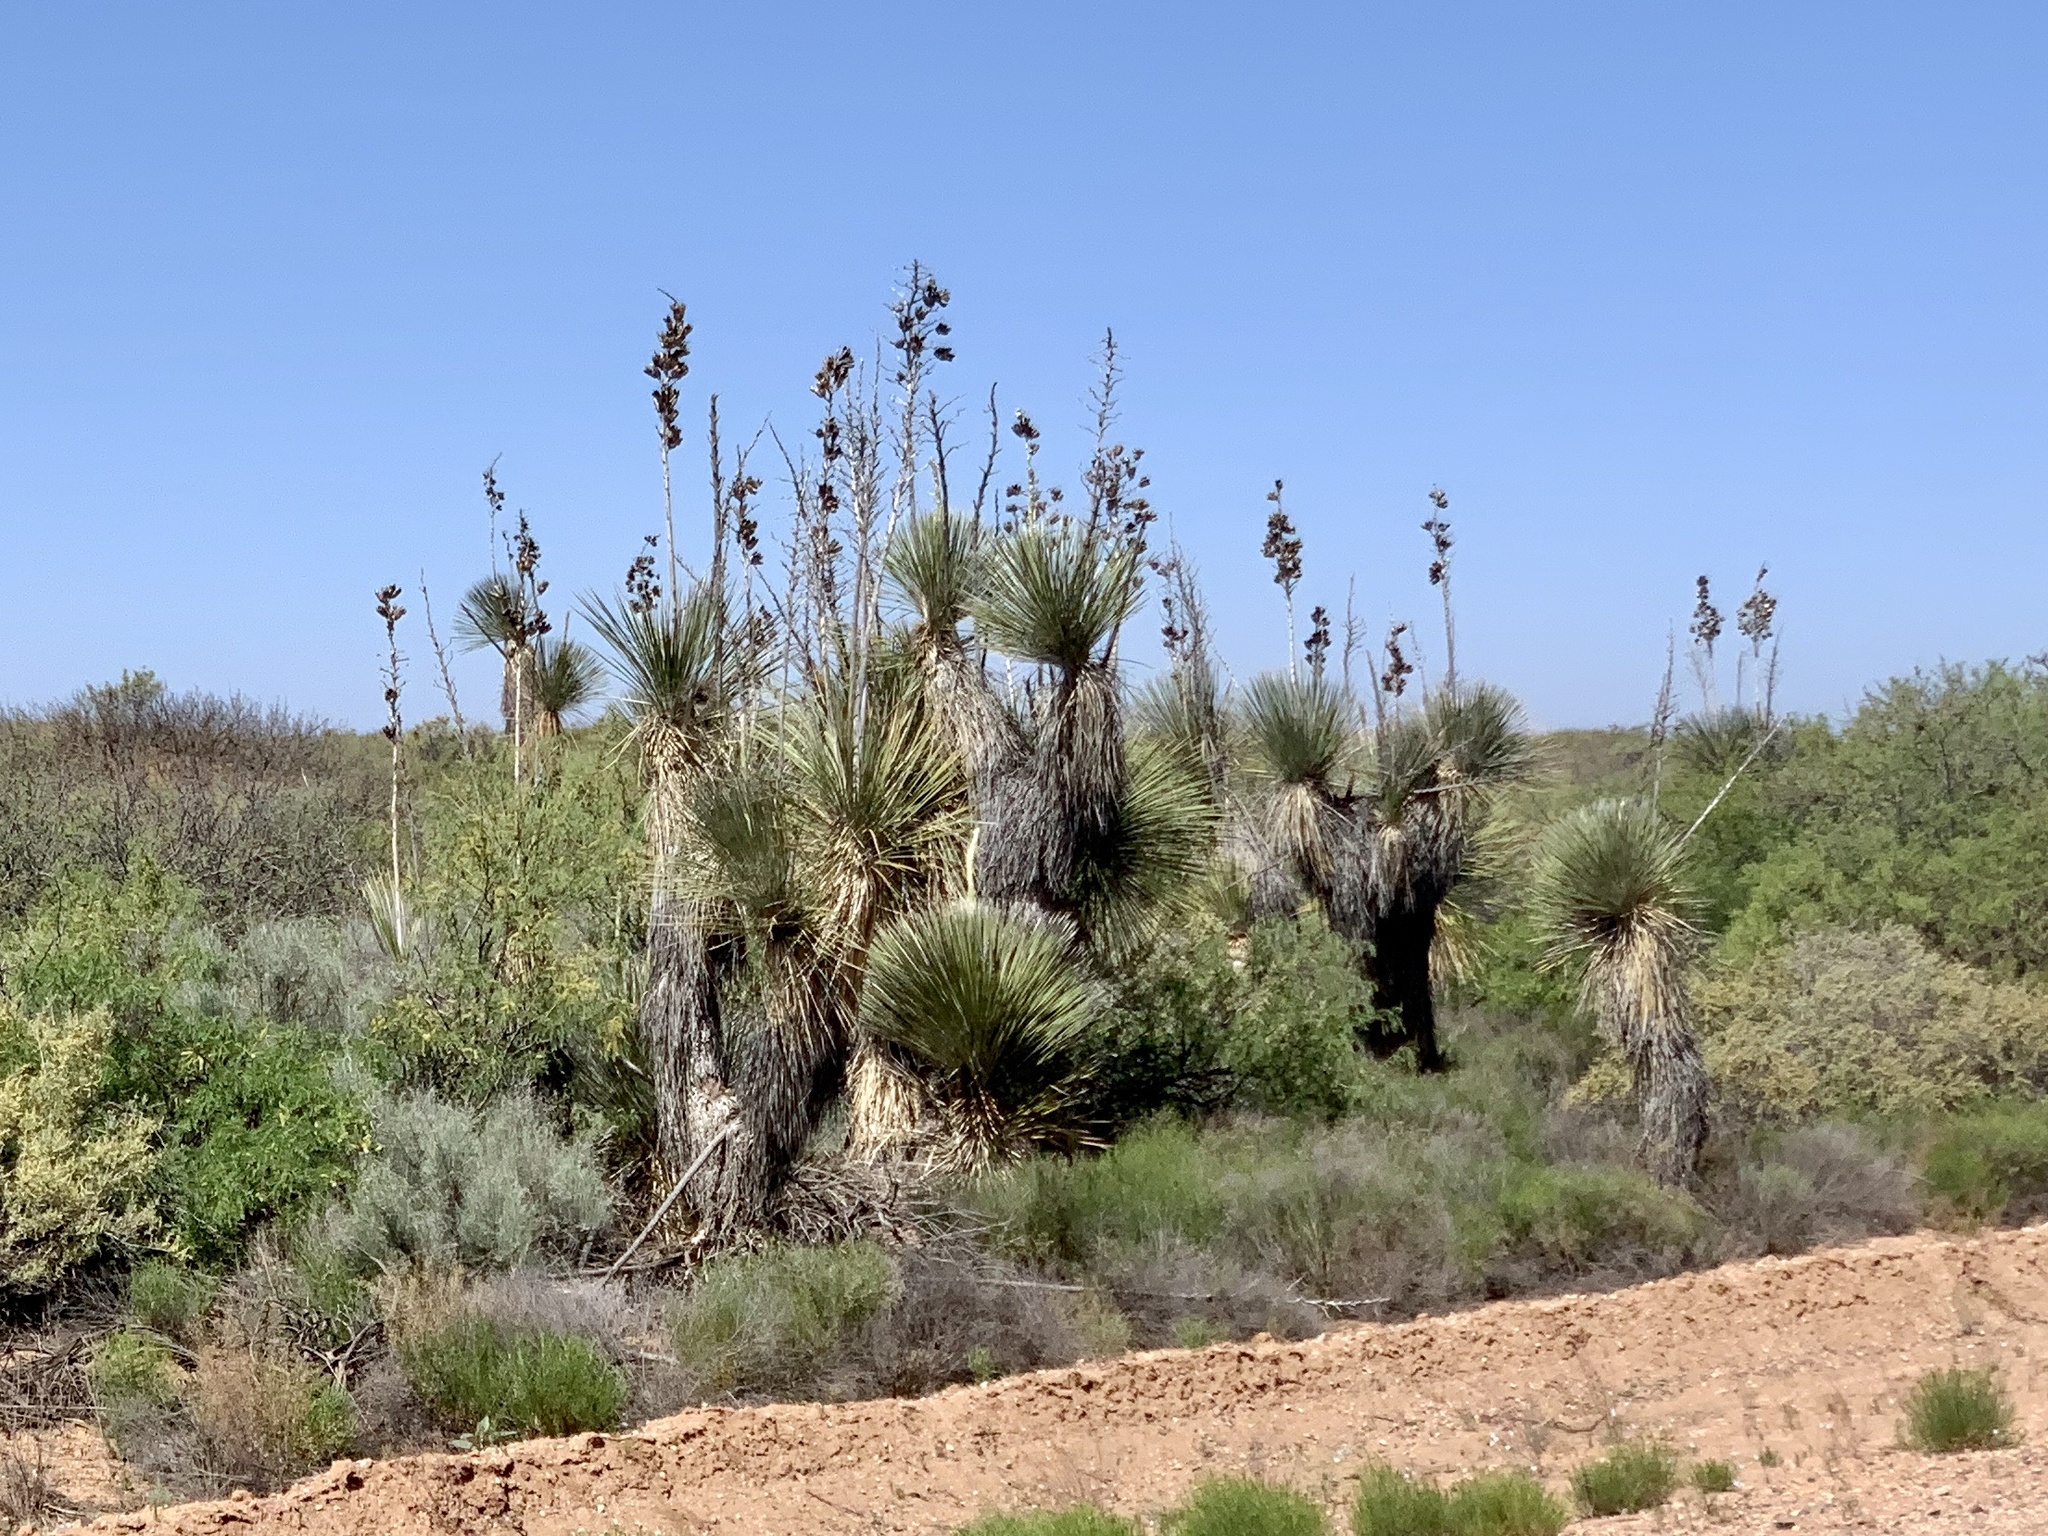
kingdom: Plantae
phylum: Tracheophyta
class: Liliopsida
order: Asparagales
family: Asparagaceae
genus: Yucca
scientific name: Yucca elata
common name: Palmella
